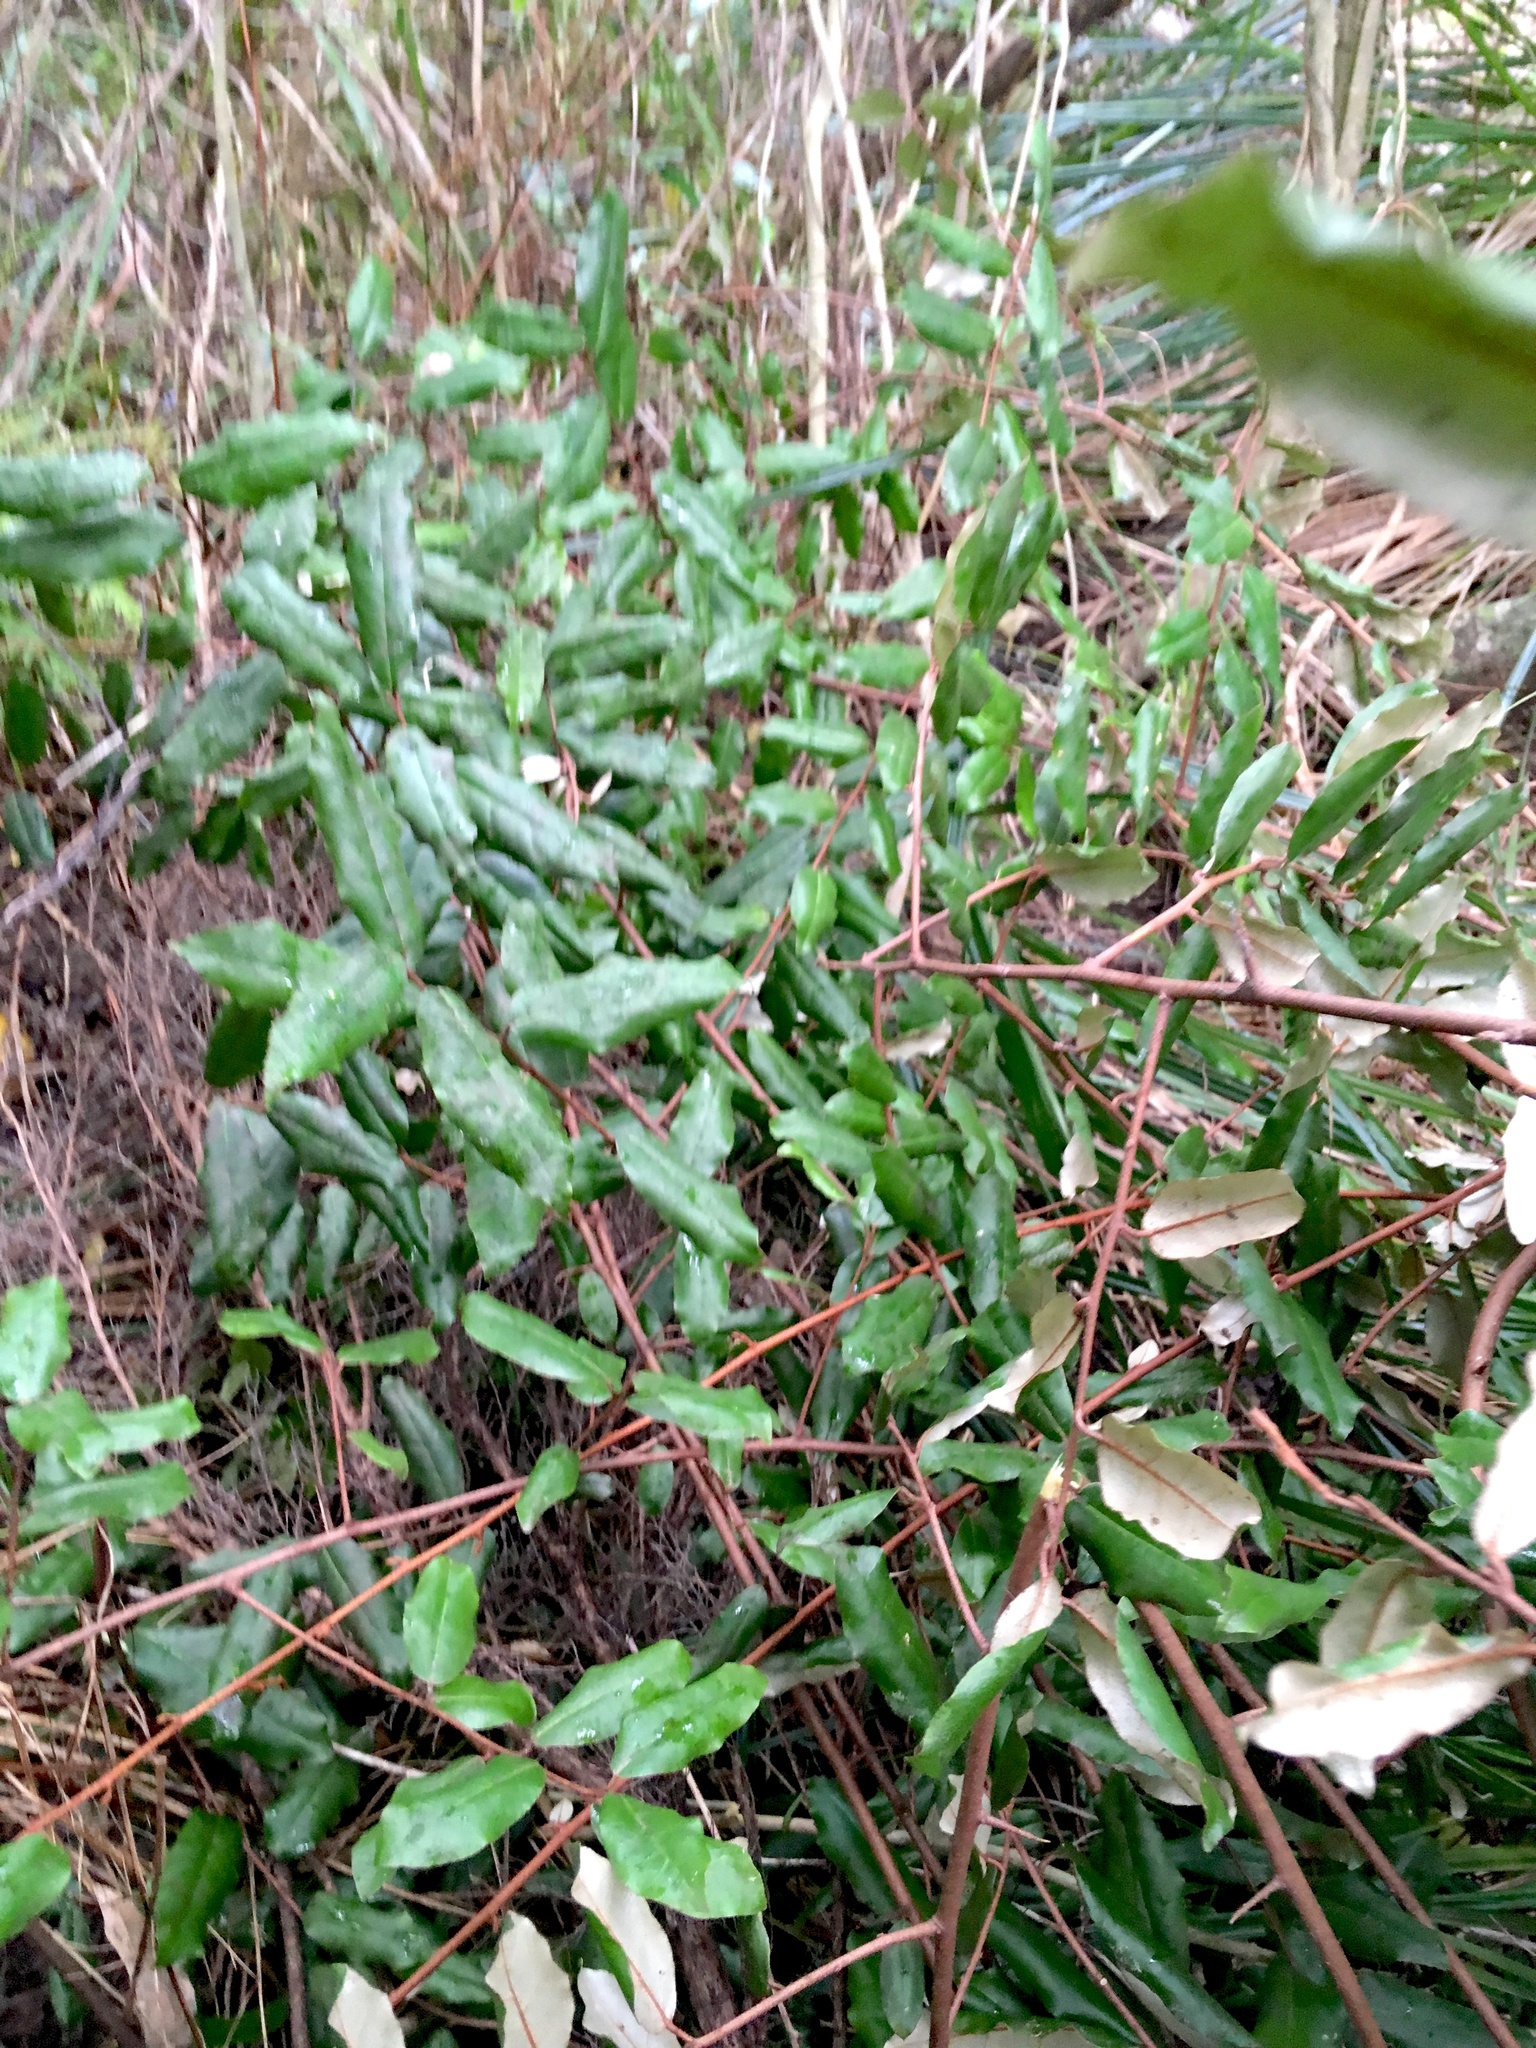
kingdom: Plantae
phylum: Tracheophyta
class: Magnoliopsida
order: Rosales
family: Elaeagnaceae
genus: Elaeagnus
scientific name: Elaeagnus reflexa
